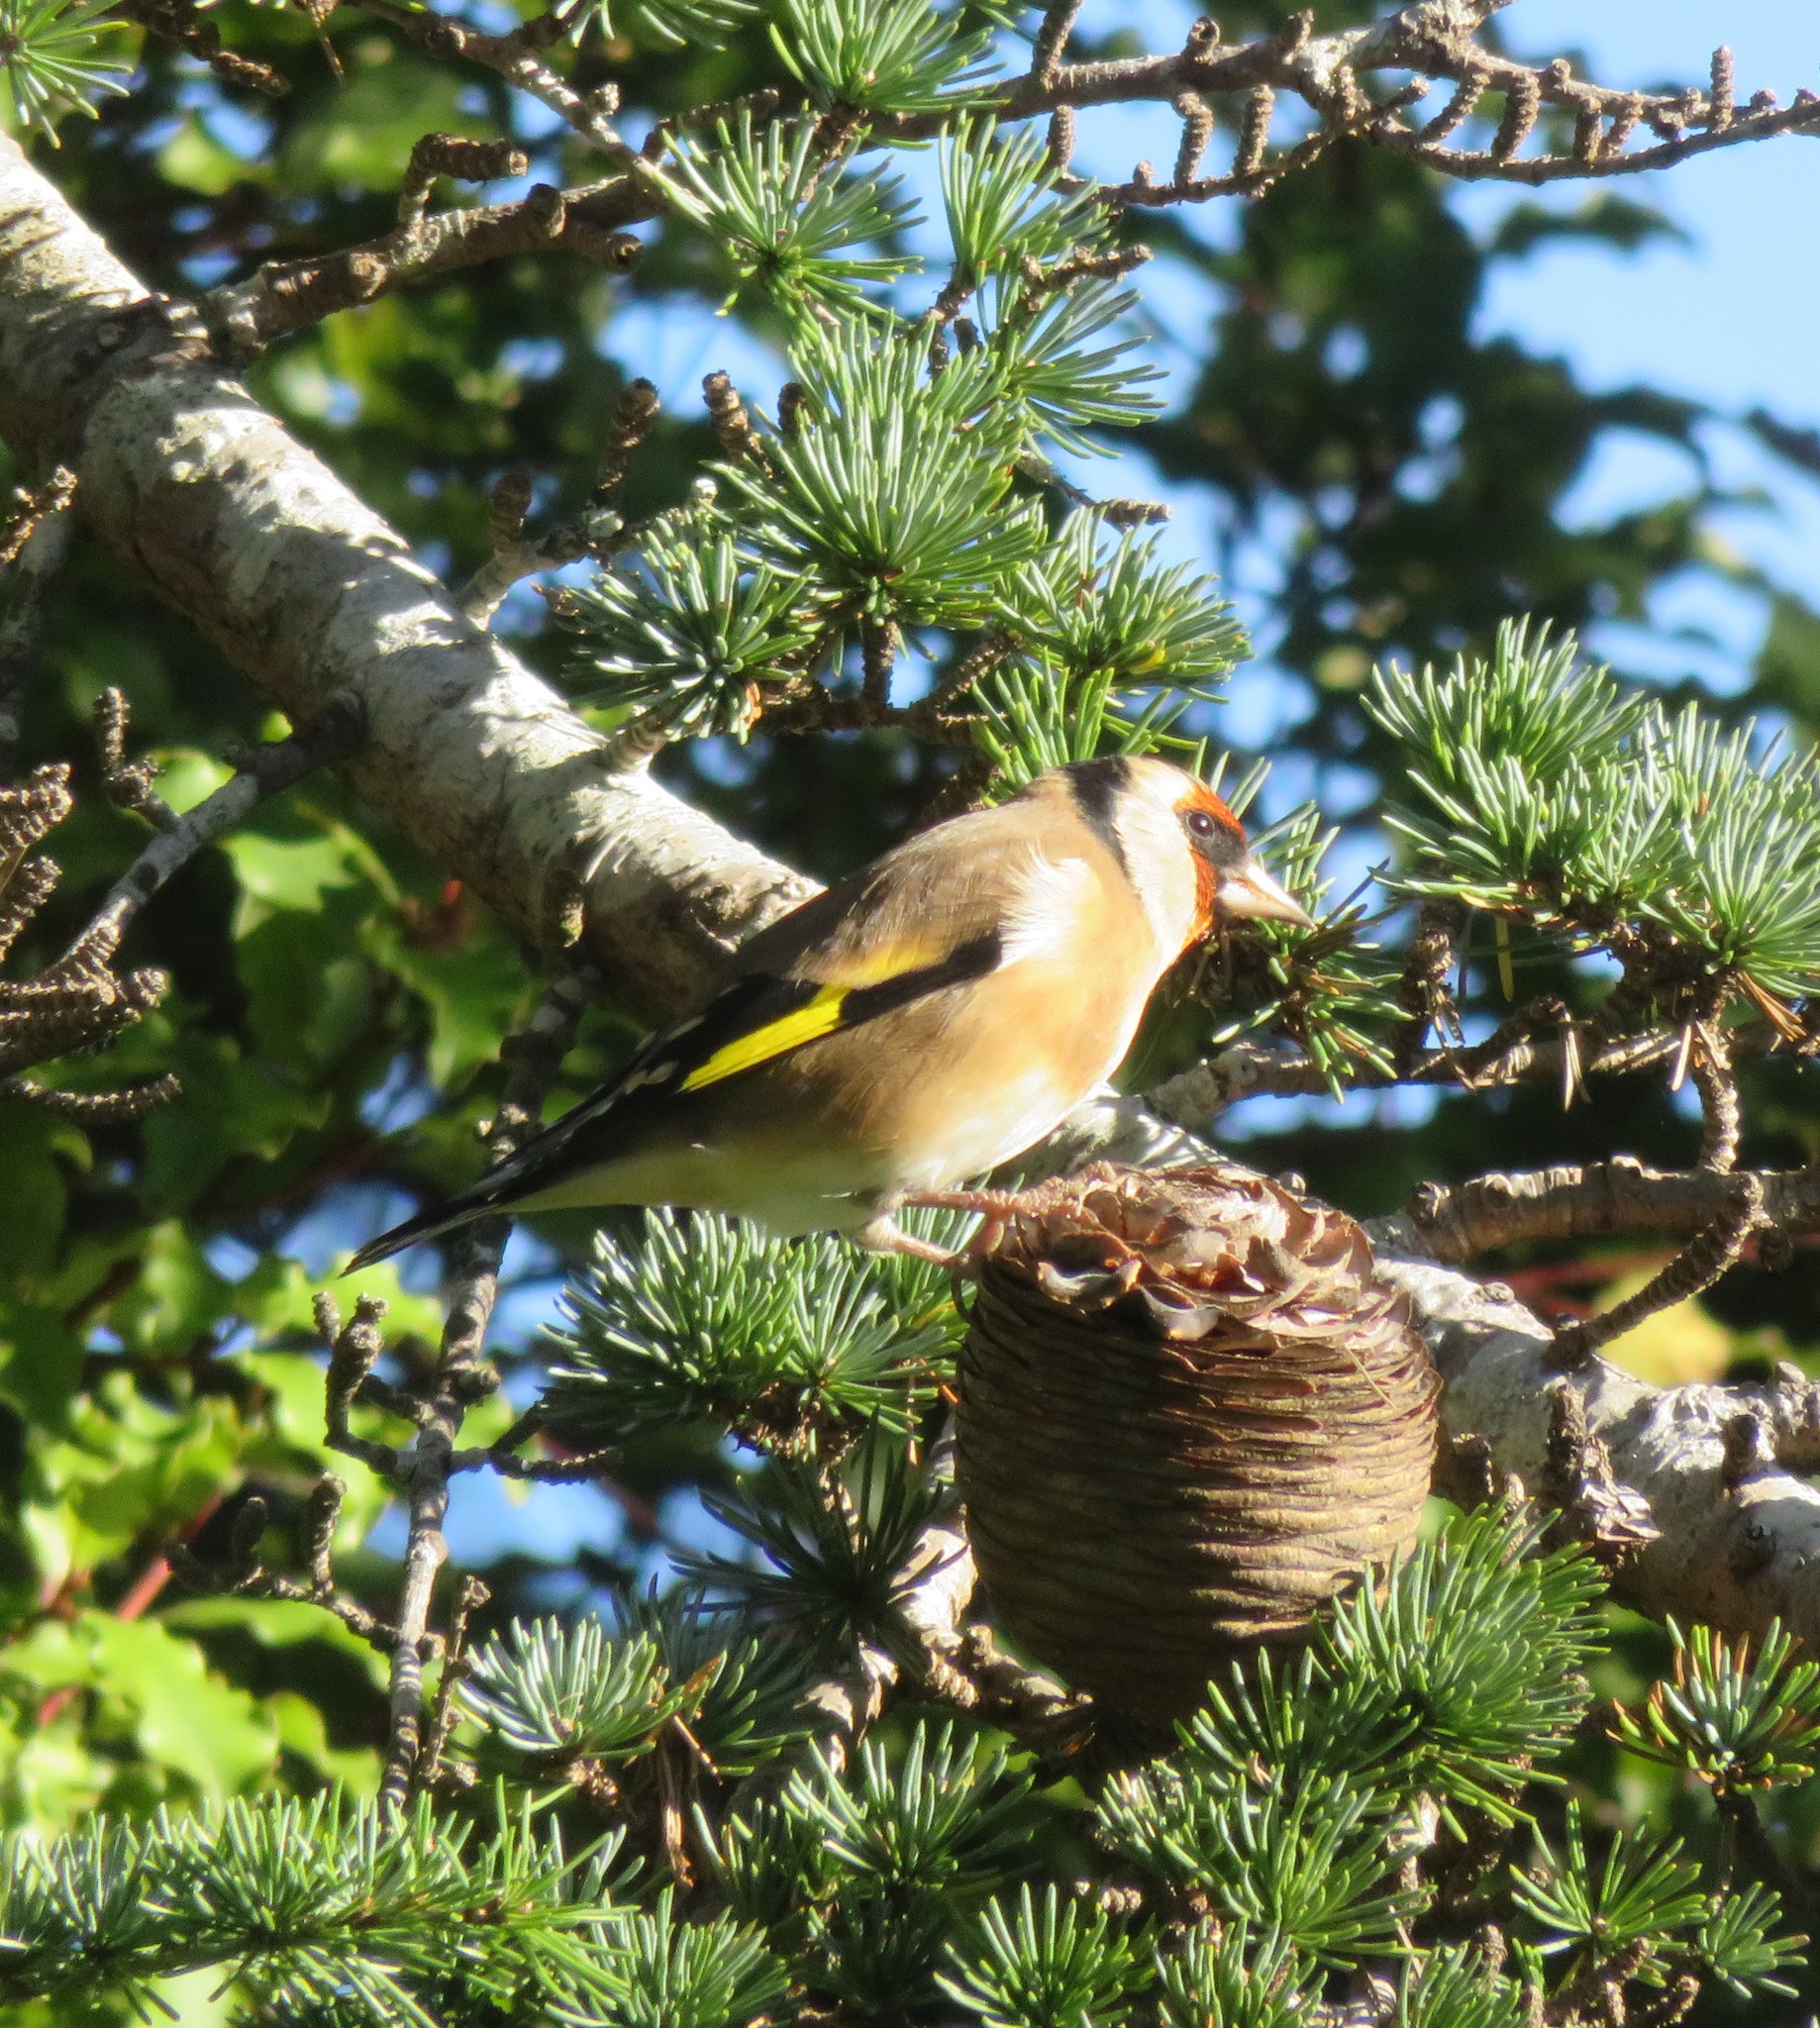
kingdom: Animalia
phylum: Chordata
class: Aves
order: Passeriformes
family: Fringillidae
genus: Carduelis
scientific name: Carduelis carduelis
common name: European goldfinch
